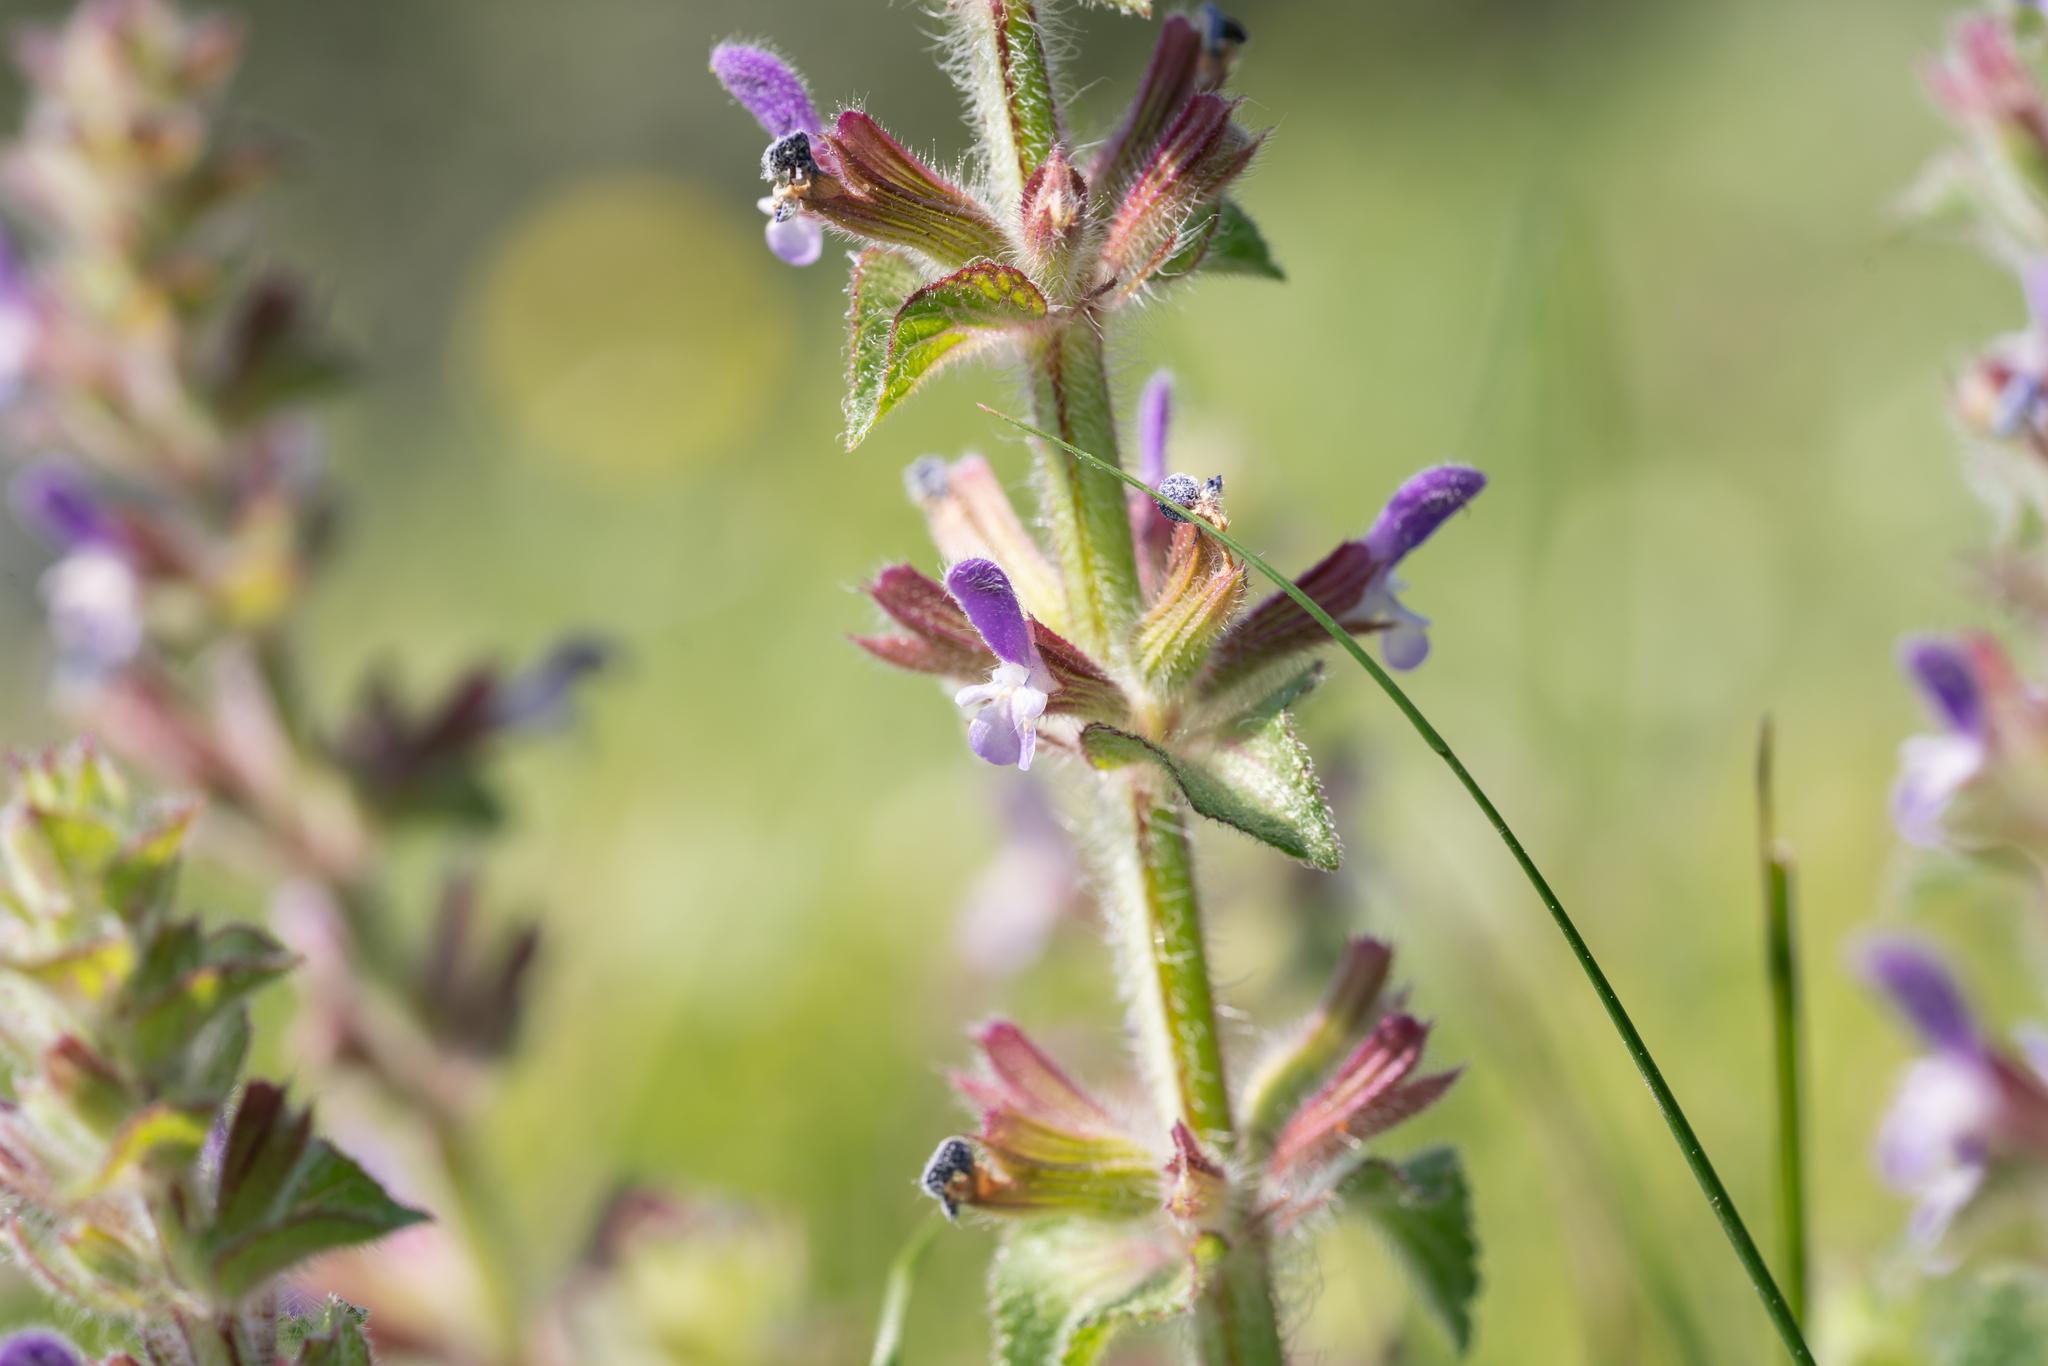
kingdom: Plantae
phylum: Tracheophyta
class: Magnoliopsida
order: Lamiales
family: Lamiaceae
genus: Salvia
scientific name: Salvia viridis
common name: Annual clary
